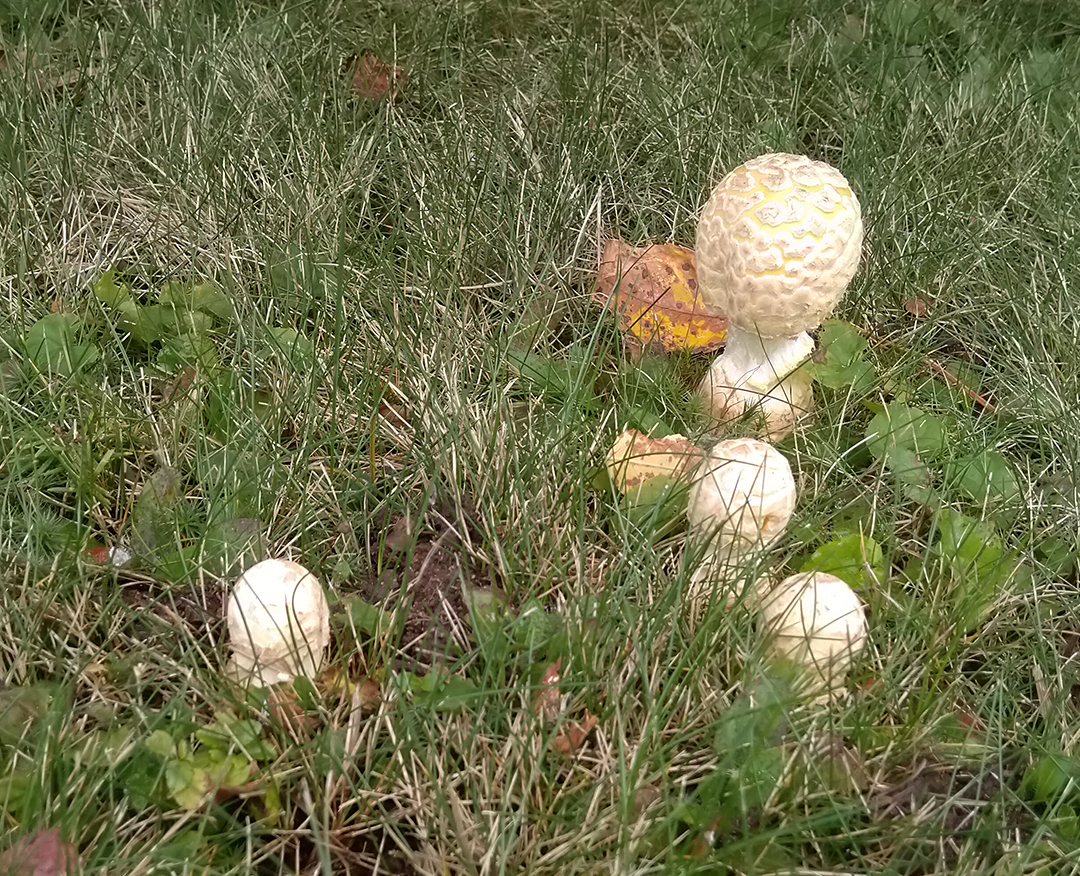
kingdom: Fungi
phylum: Basidiomycota
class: Agaricomycetes
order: Agaricales
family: Amanitaceae
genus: Amanita
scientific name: Amanita muscaria
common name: Fly agaric
